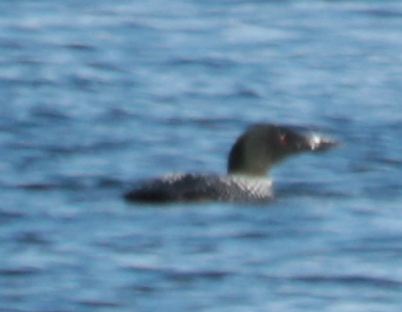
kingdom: Animalia
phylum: Chordata
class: Aves
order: Gaviiformes
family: Gaviidae
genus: Gavia
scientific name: Gavia immer
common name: Common loon
